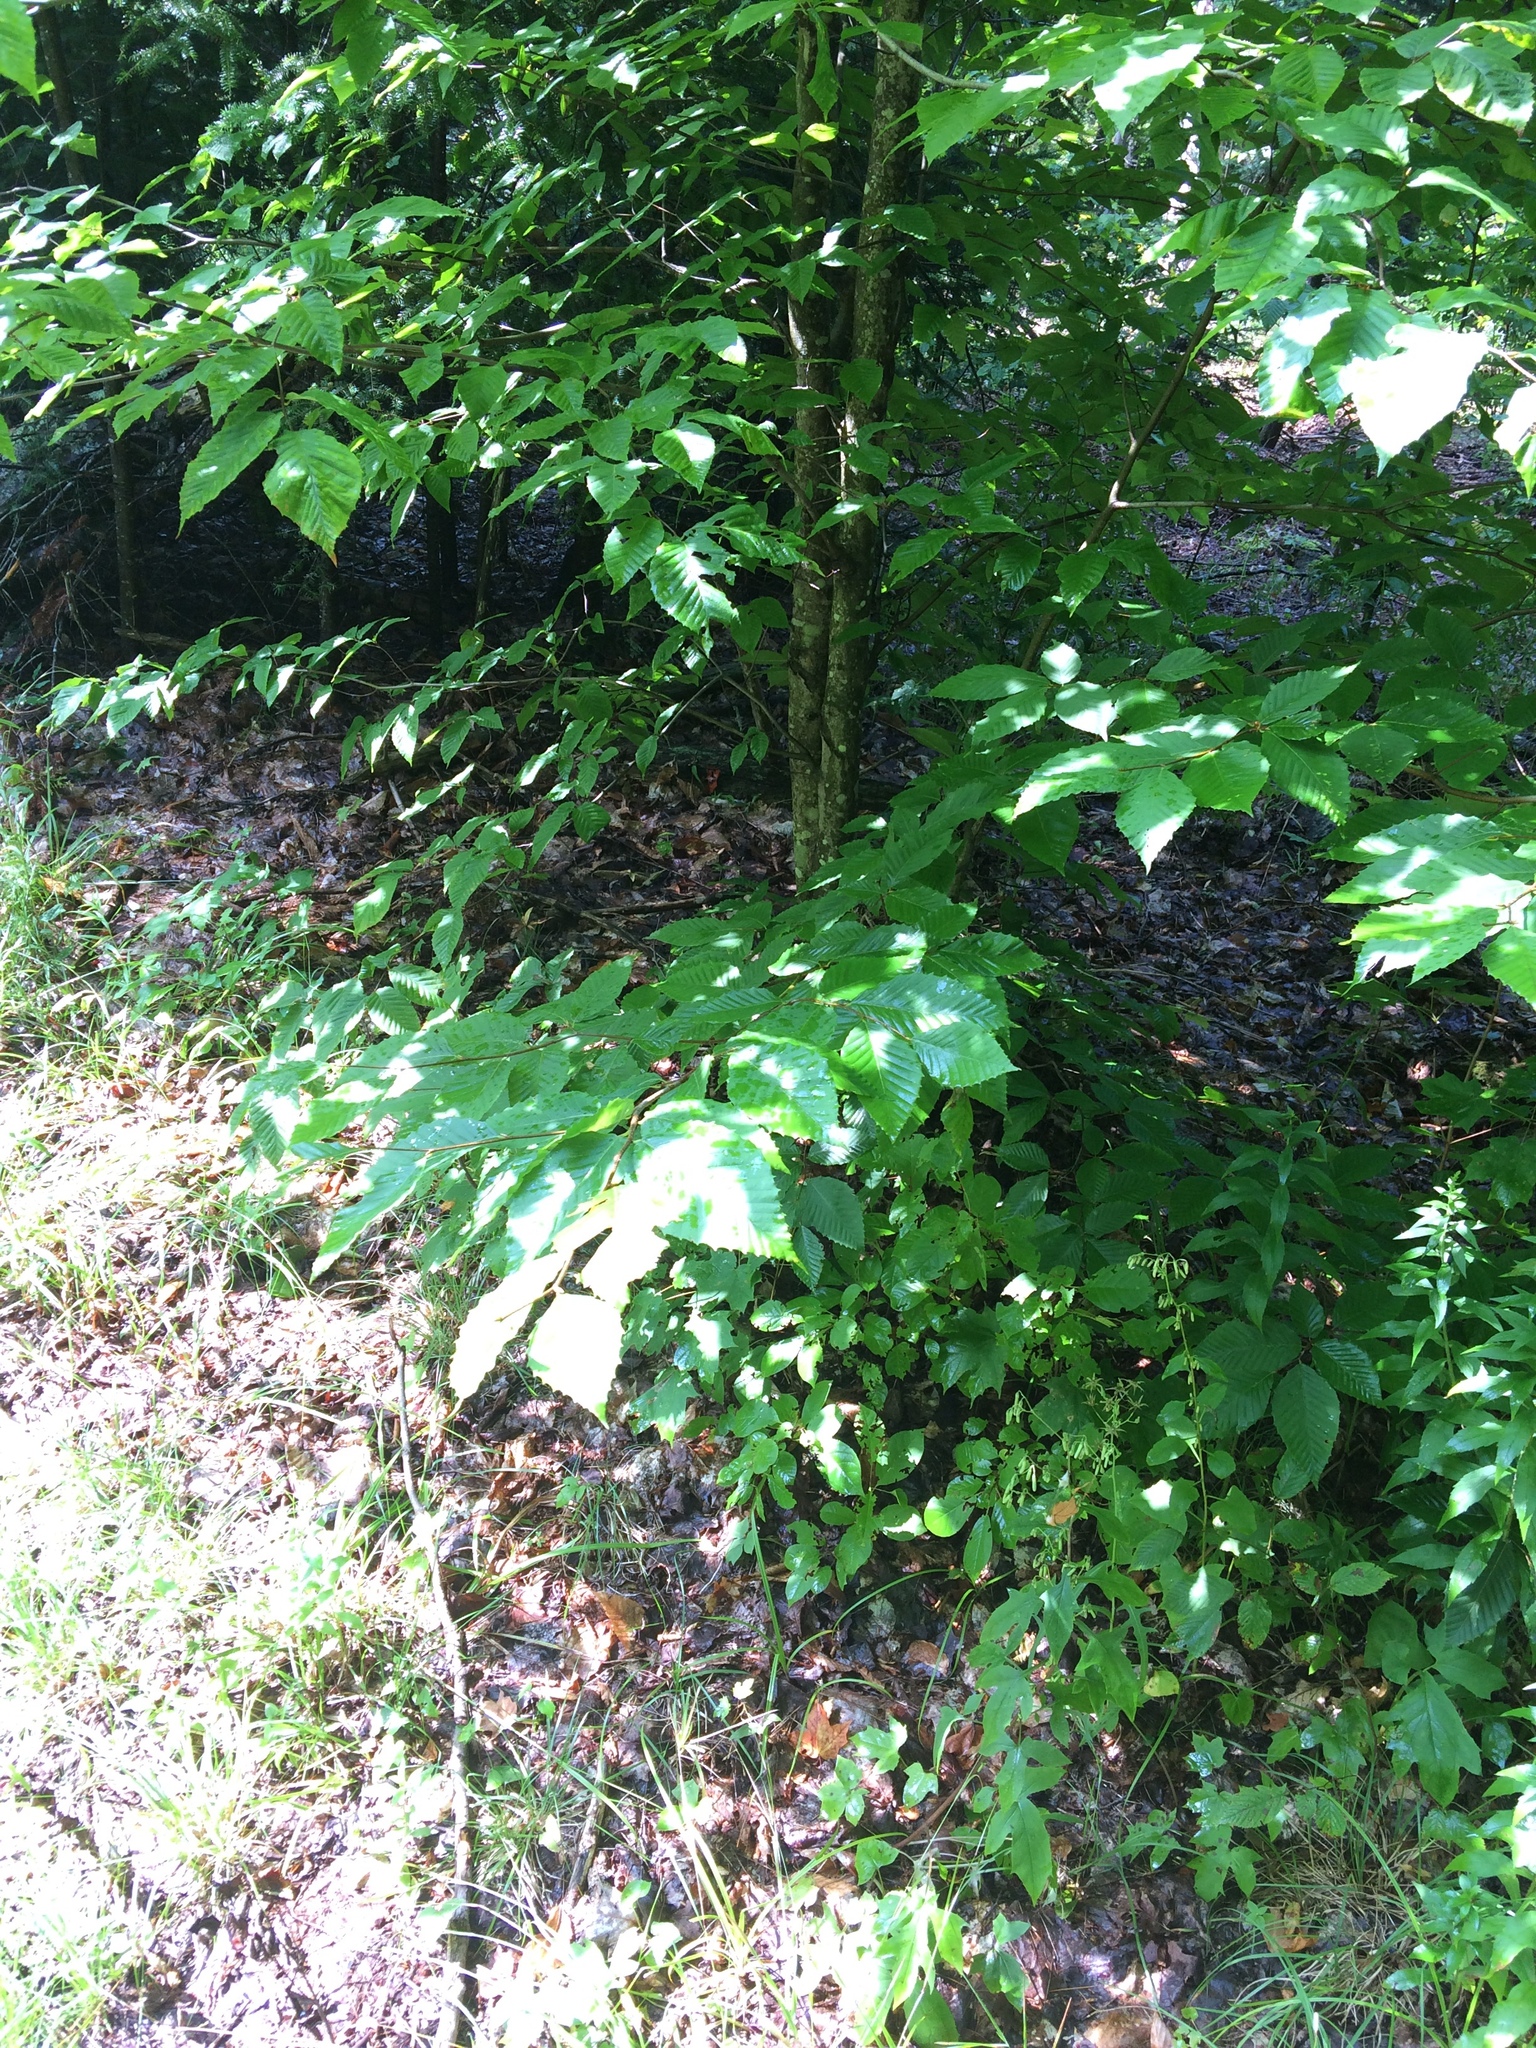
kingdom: Plantae
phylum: Tracheophyta
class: Magnoliopsida
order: Fagales
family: Fagaceae
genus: Fagus
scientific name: Fagus grandifolia
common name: American beech
